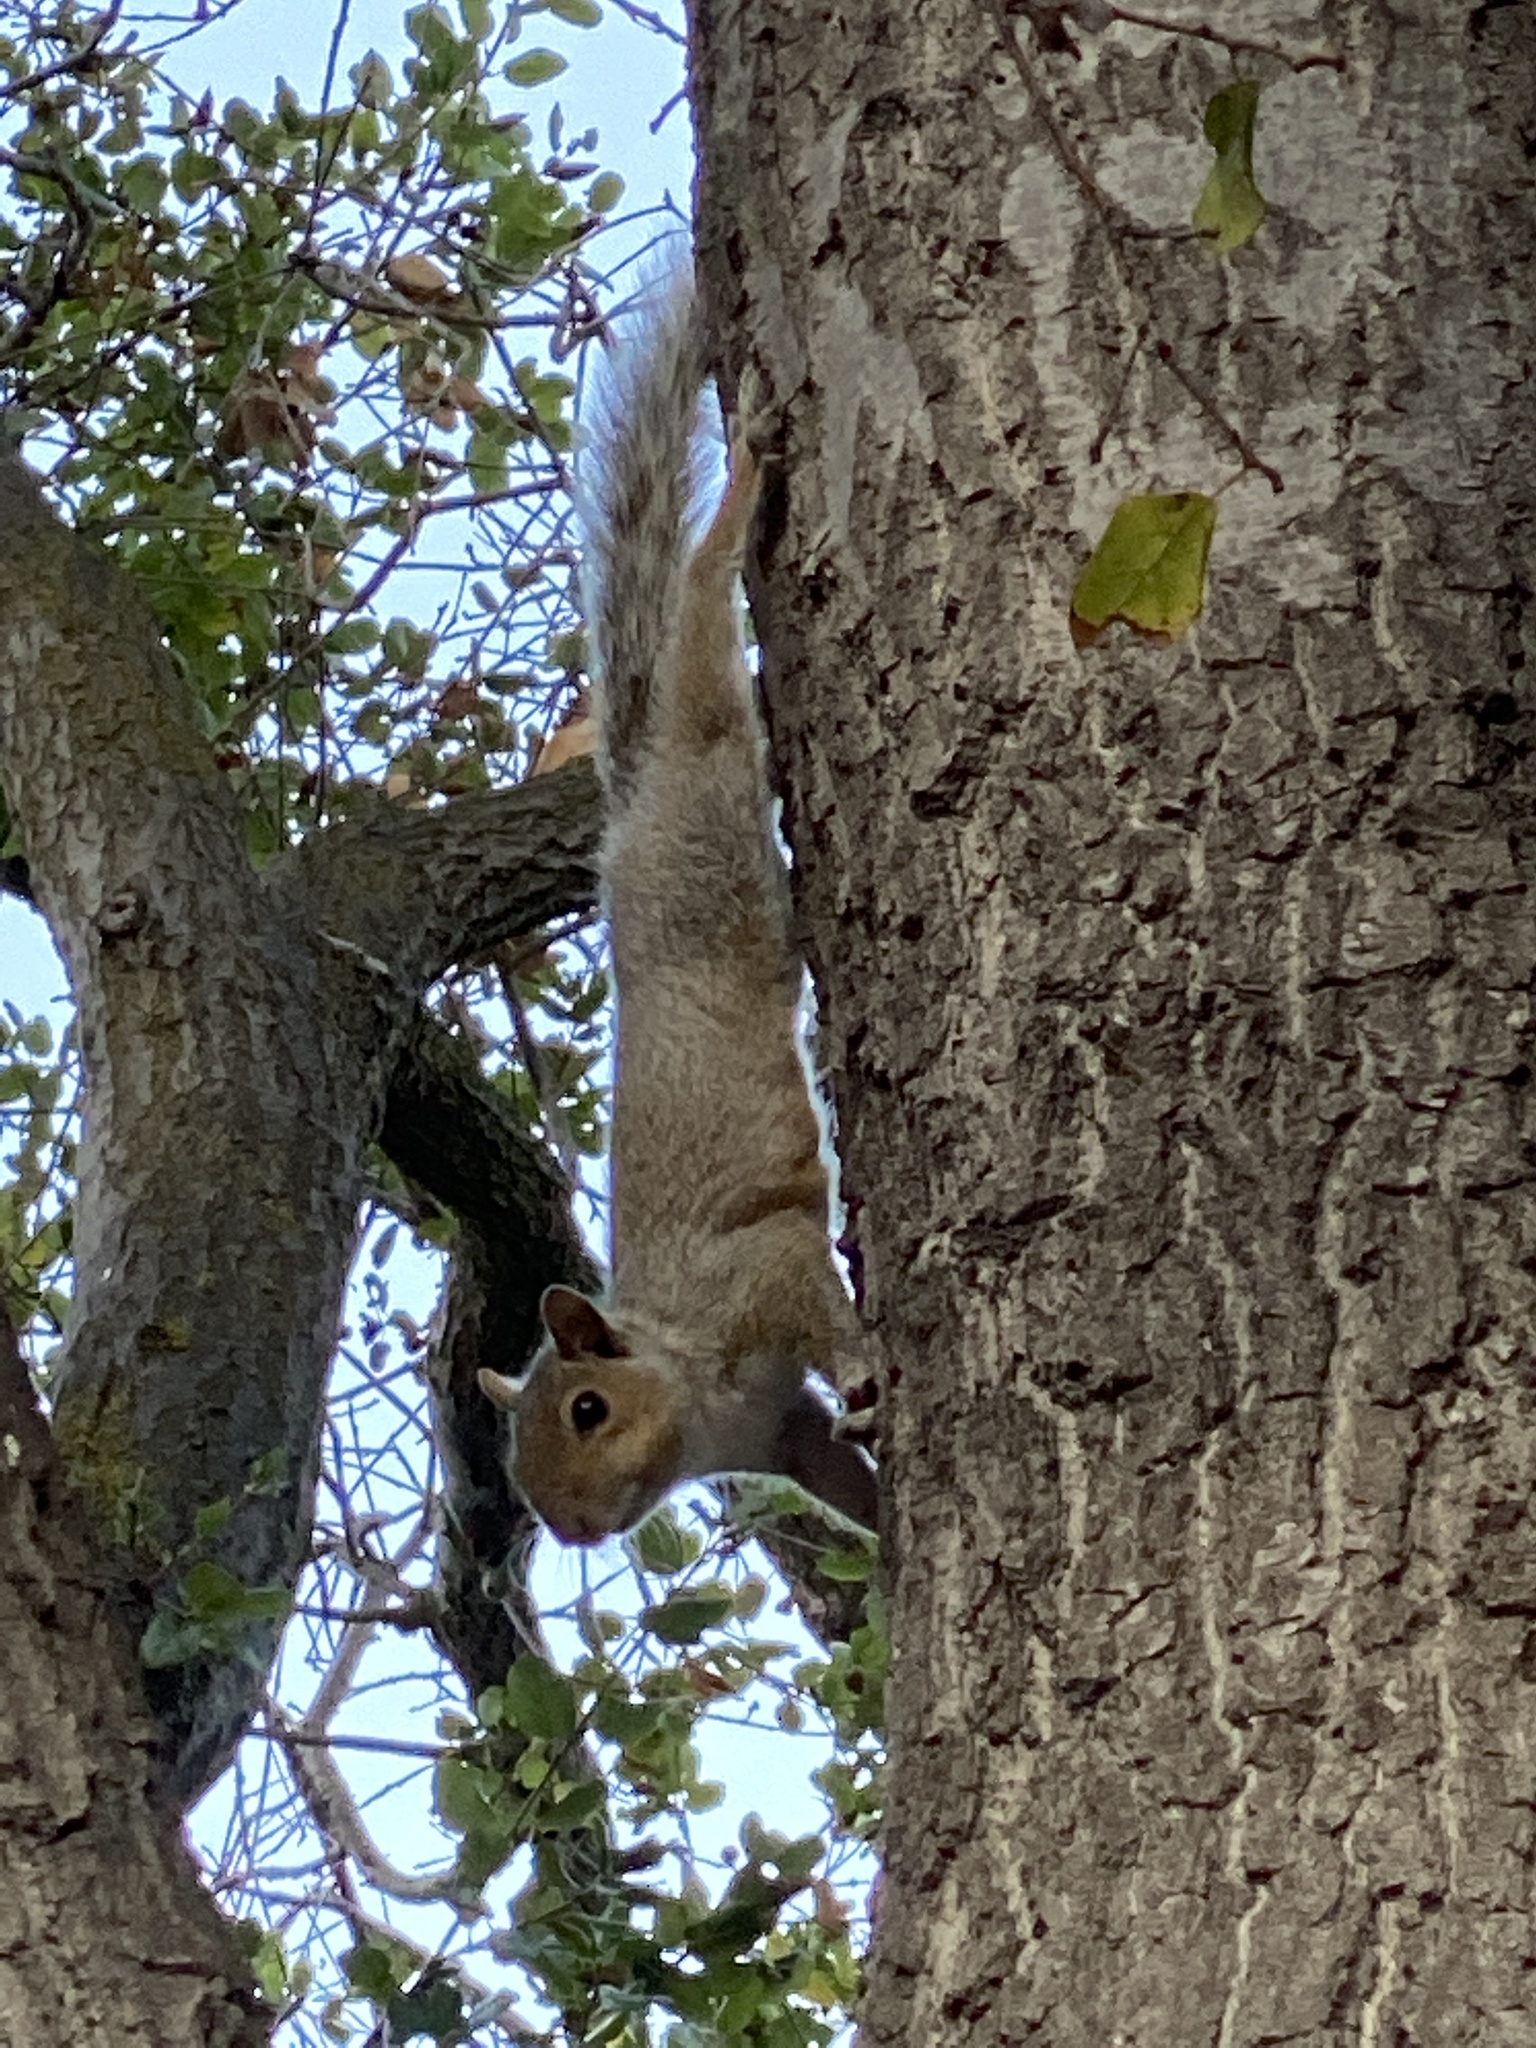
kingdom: Animalia
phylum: Chordata
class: Mammalia
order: Rodentia
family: Sciuridae
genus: Sciurus
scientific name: Sciurus carolinensis
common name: Eastern gray squirrel
